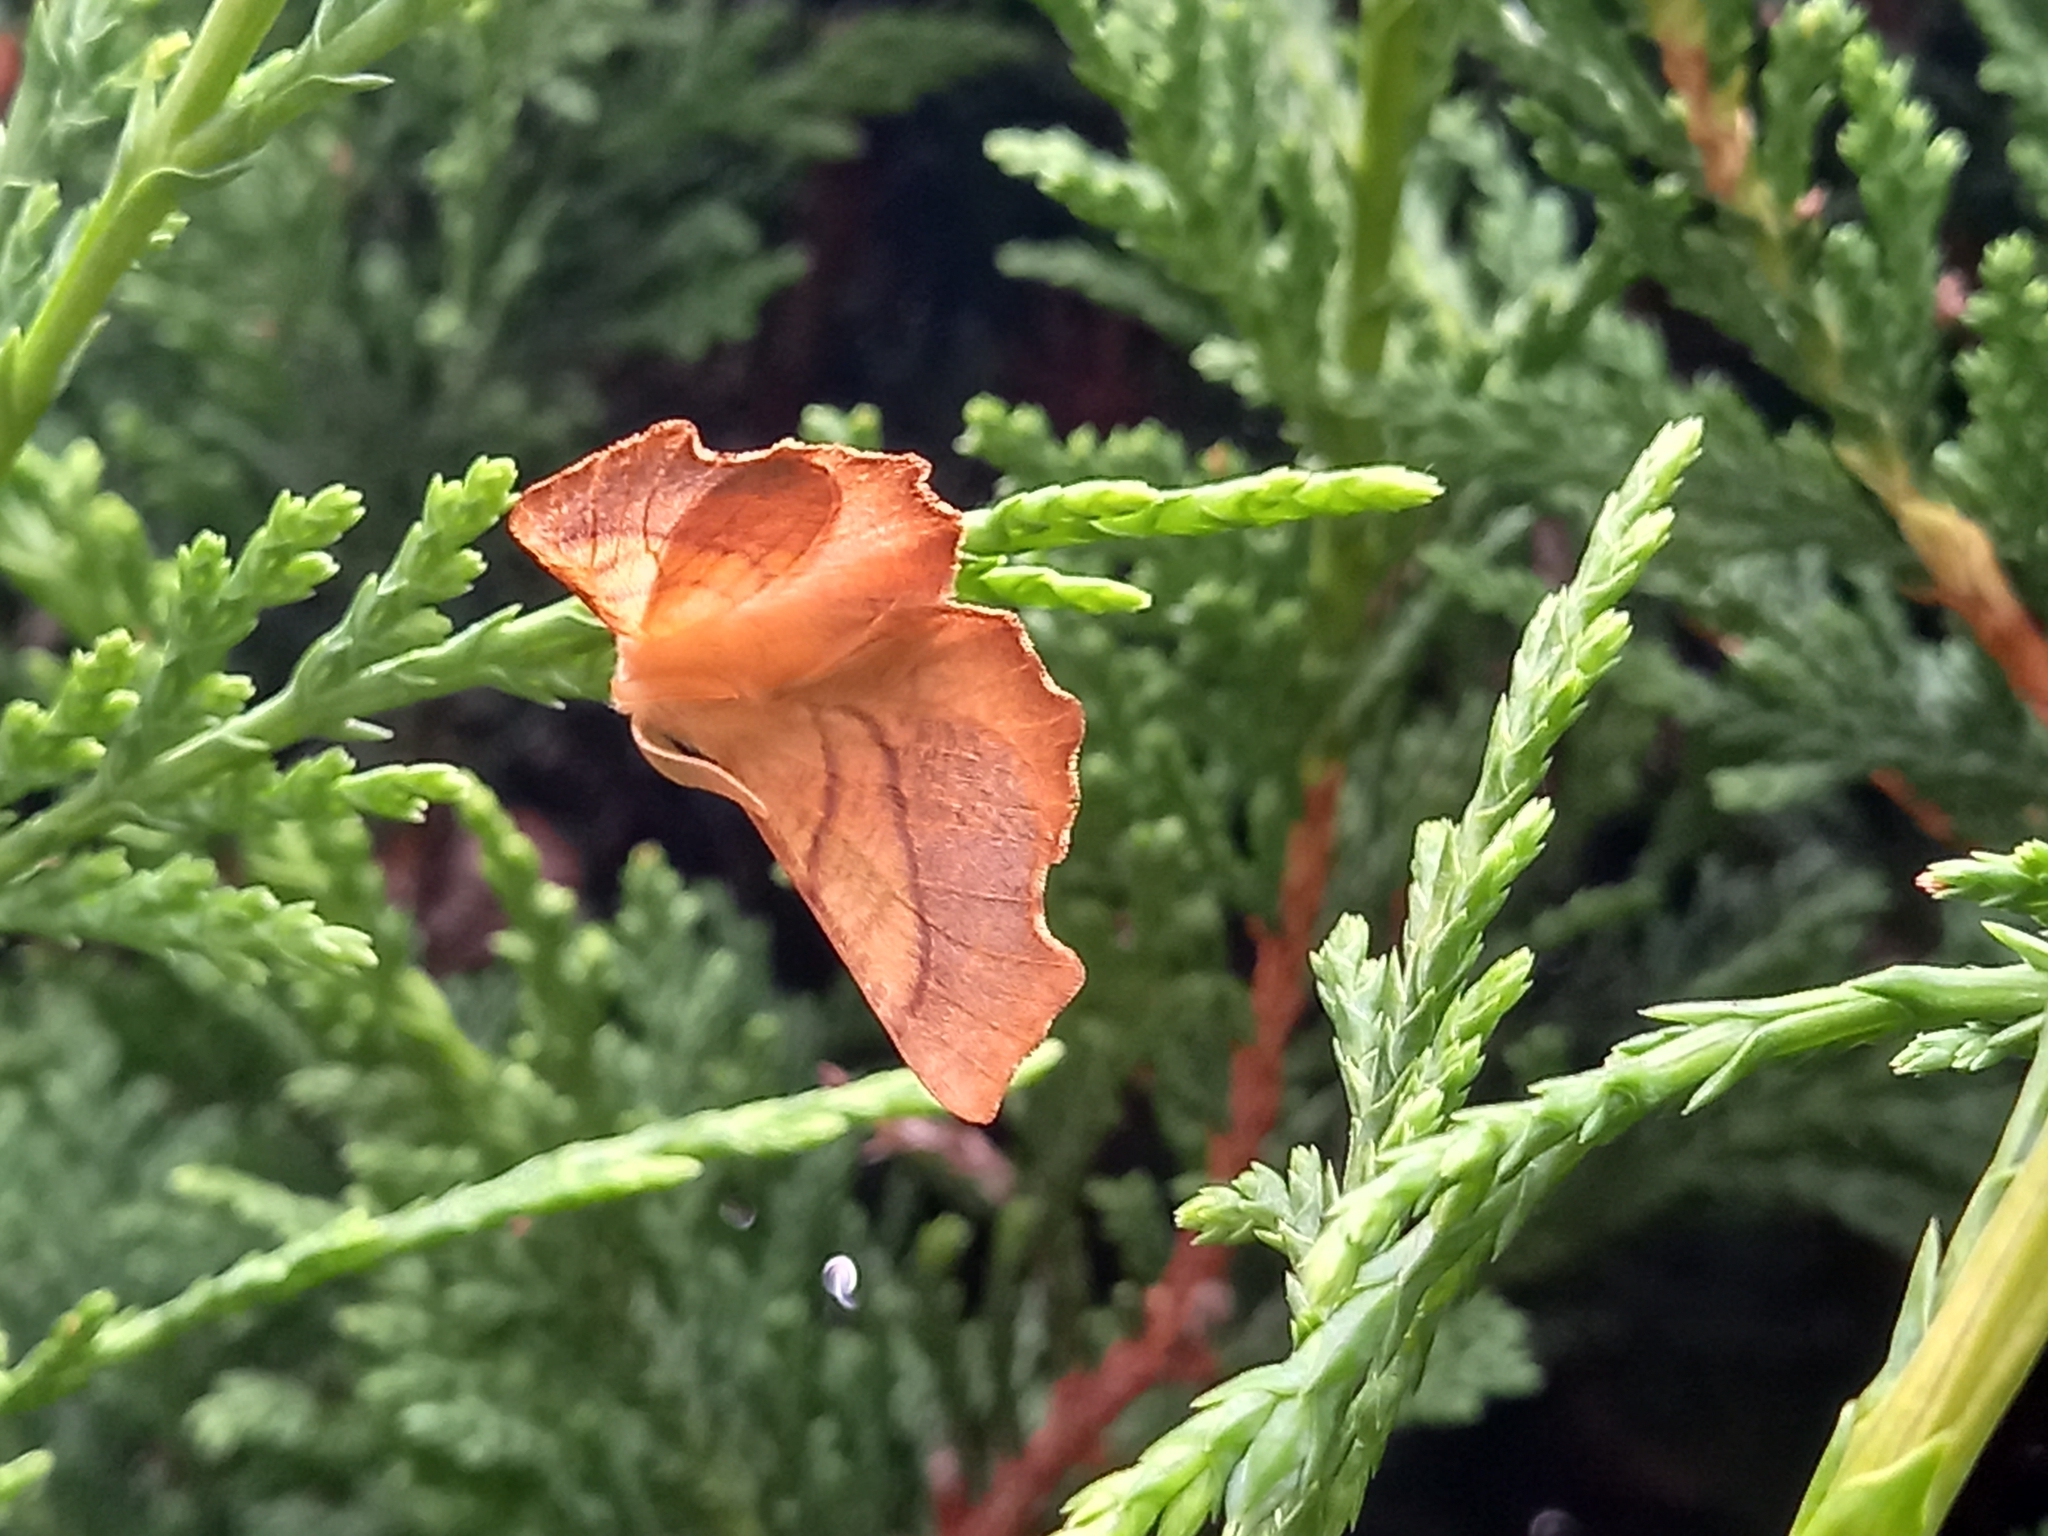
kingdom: Animalia
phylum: Arthropoda
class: Insecta
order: Lepidoptera
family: Geometridae
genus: Ennomos
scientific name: Ennomos fuscantaria
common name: Dusky thorn
